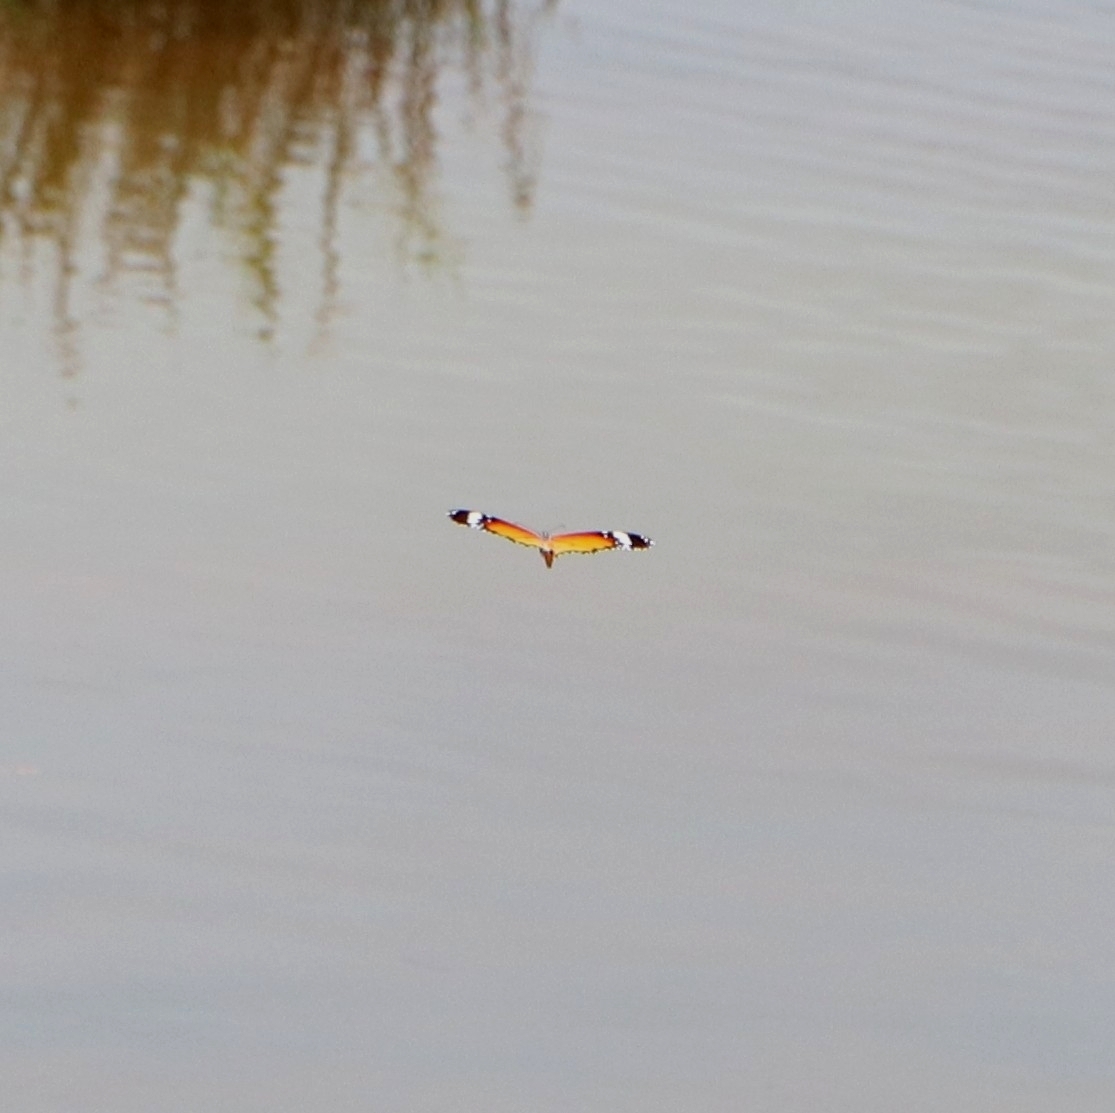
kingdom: Animalia
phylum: Arthropoda
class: Insecta
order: Lepidoptera
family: Nymphalidae
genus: Danaus
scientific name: Danaus chrysippus
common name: Plain tiger
